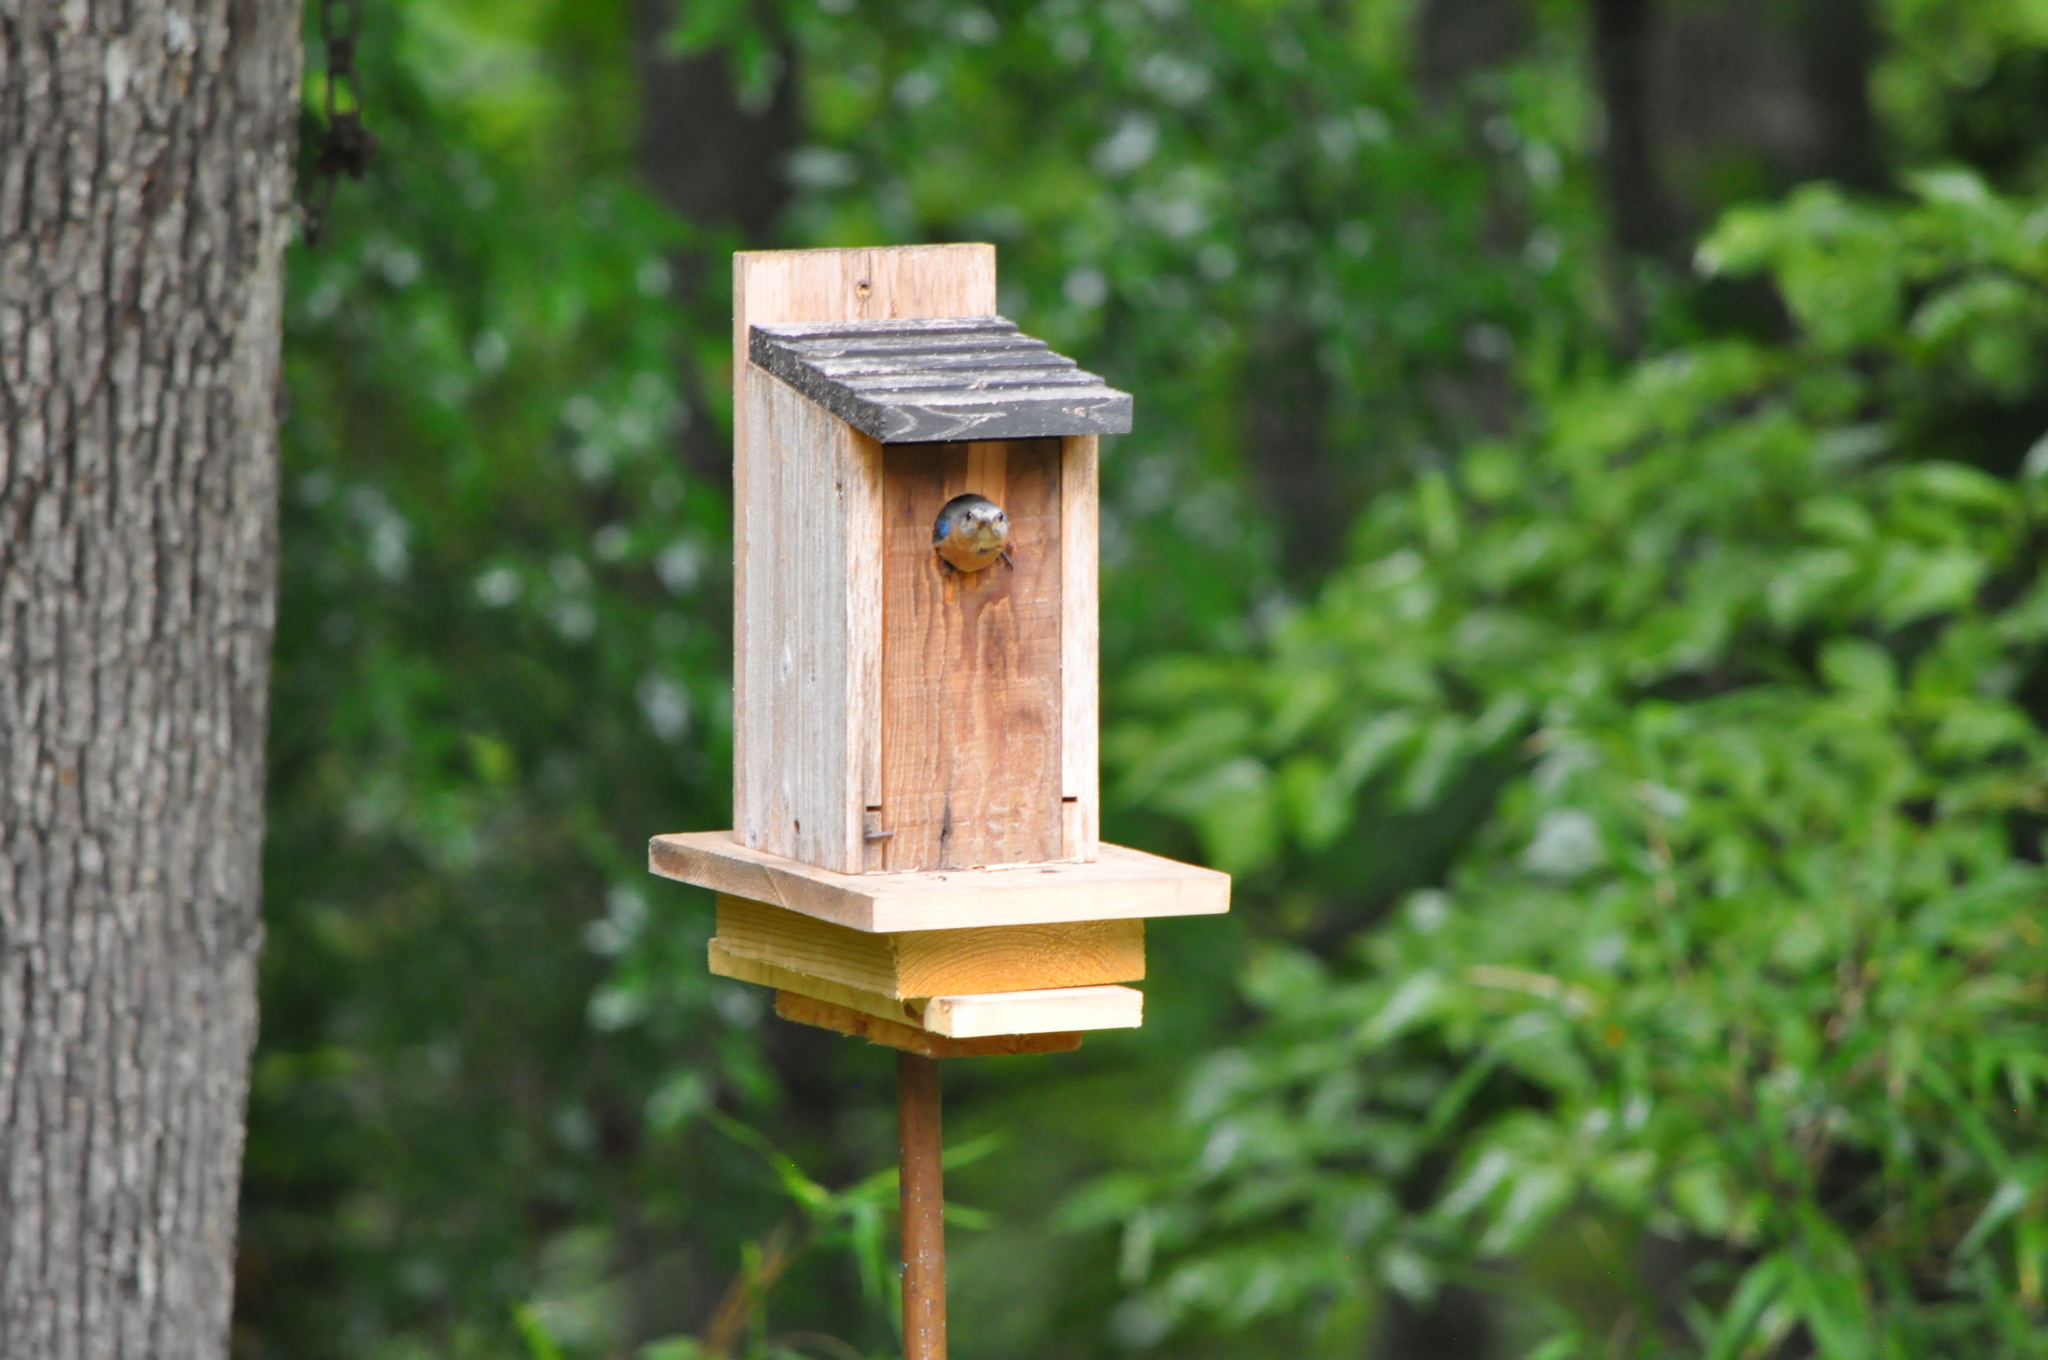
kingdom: Animalia
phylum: Chordata
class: Aves
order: Passeriformes
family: Turdidae
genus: Sialia
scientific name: Sialia sialis
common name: Eastern bluebird
